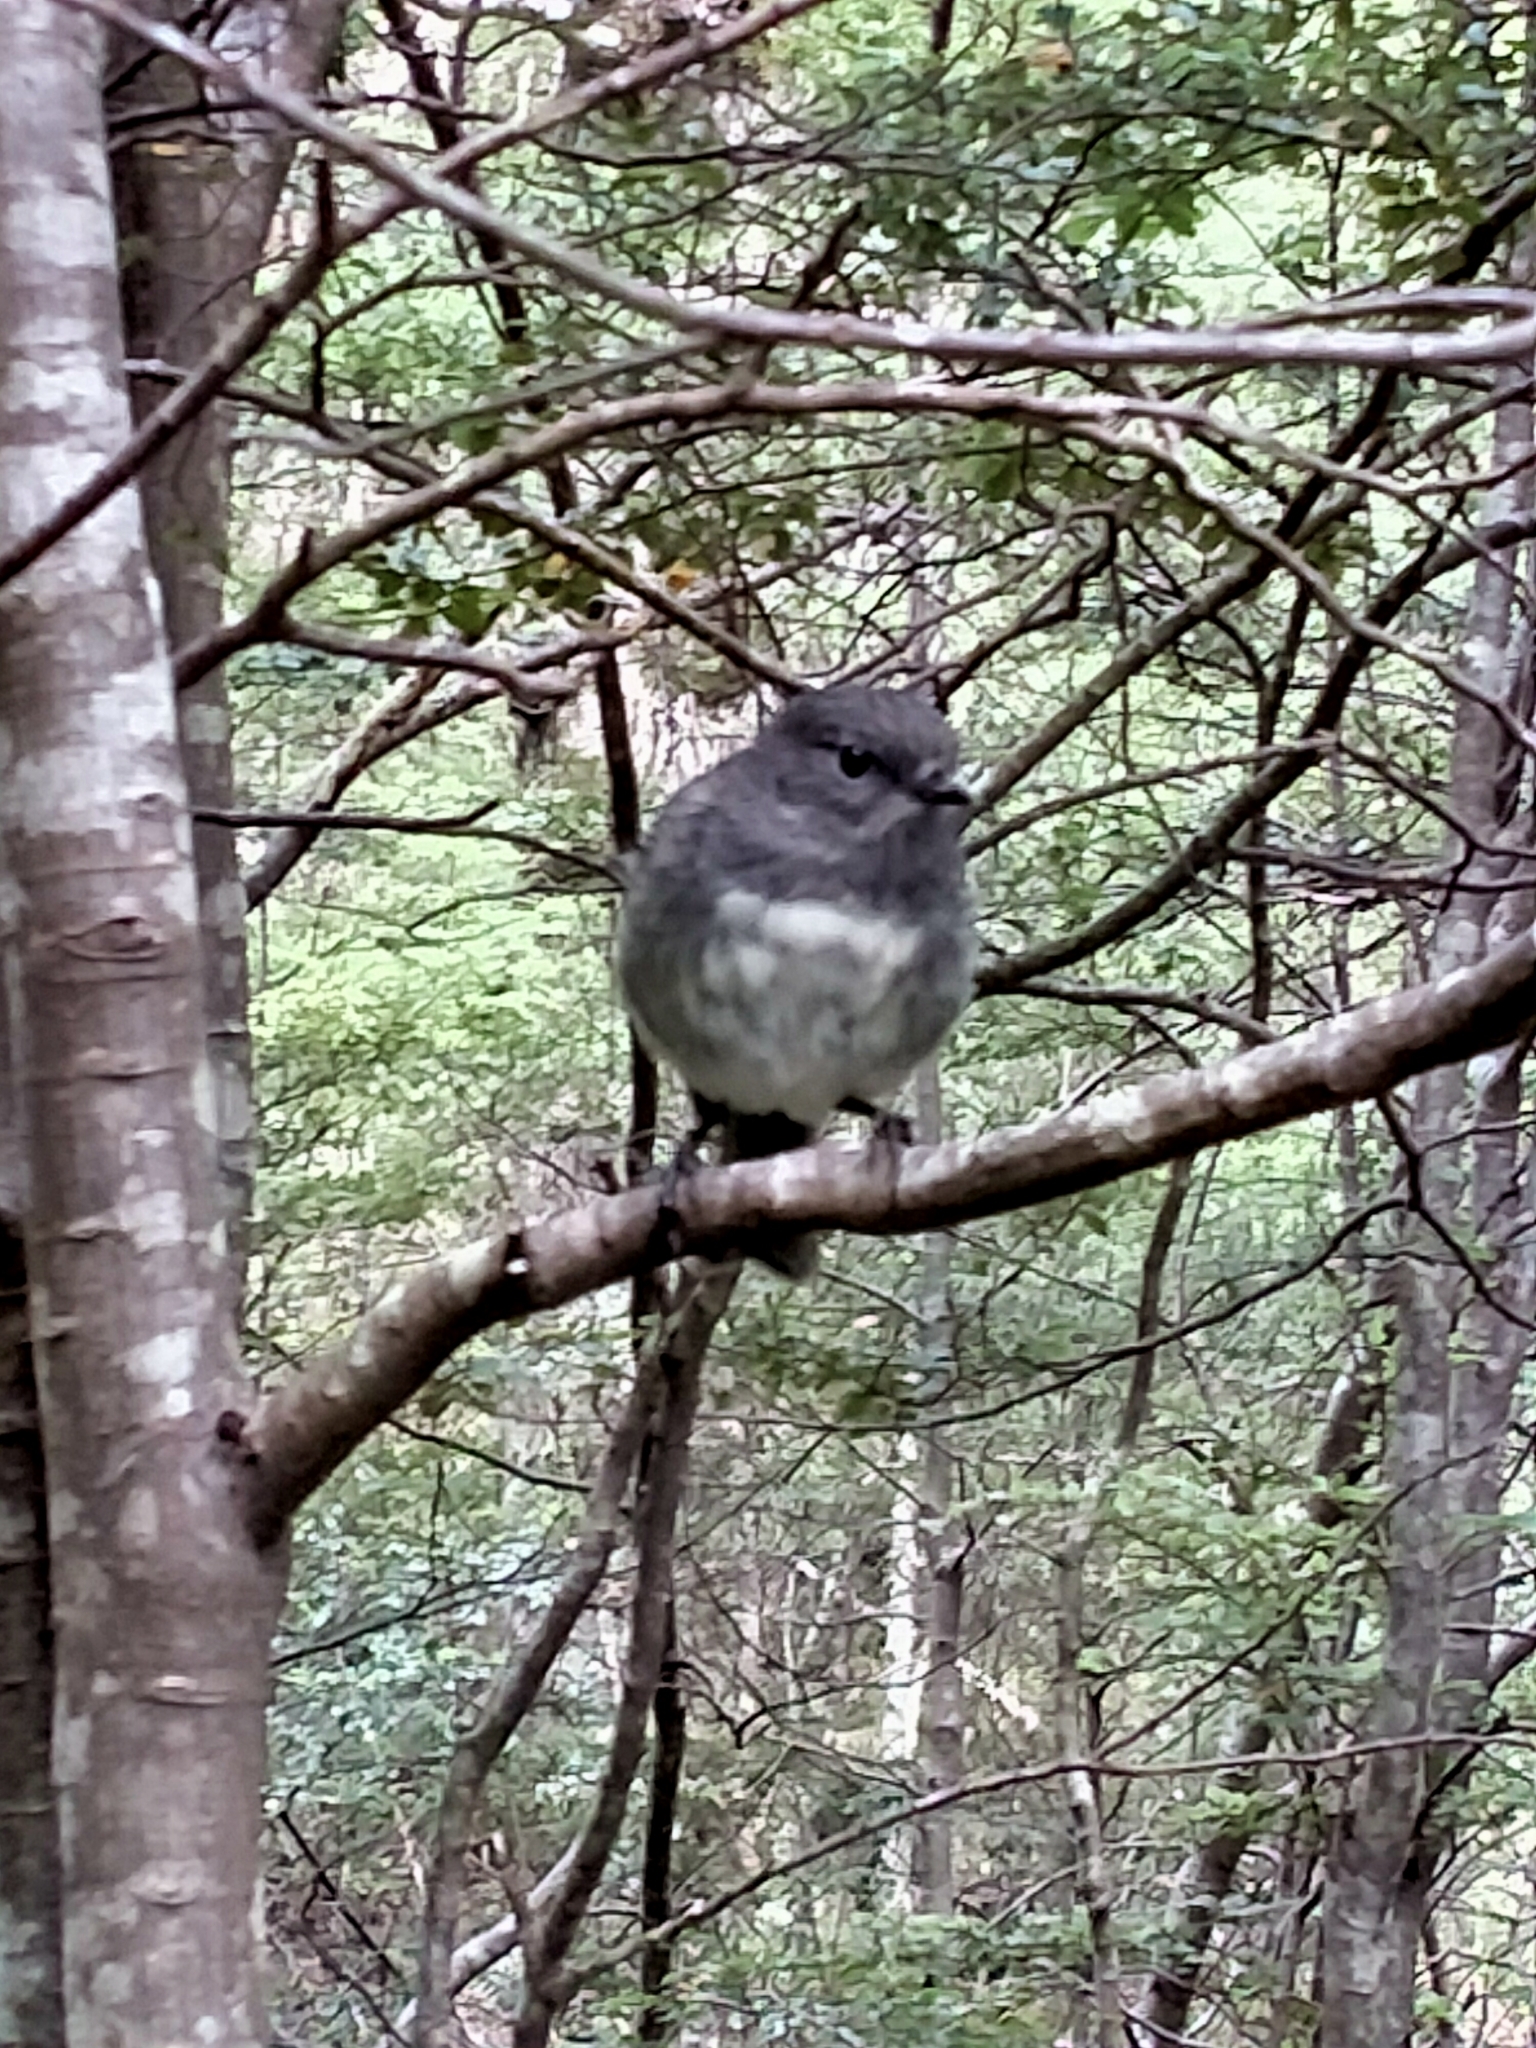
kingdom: Animalia
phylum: Chordata
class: Aves
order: Passeriformes
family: Petroicidae
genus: Petroica
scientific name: Petroica australis
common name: New zealand robin
